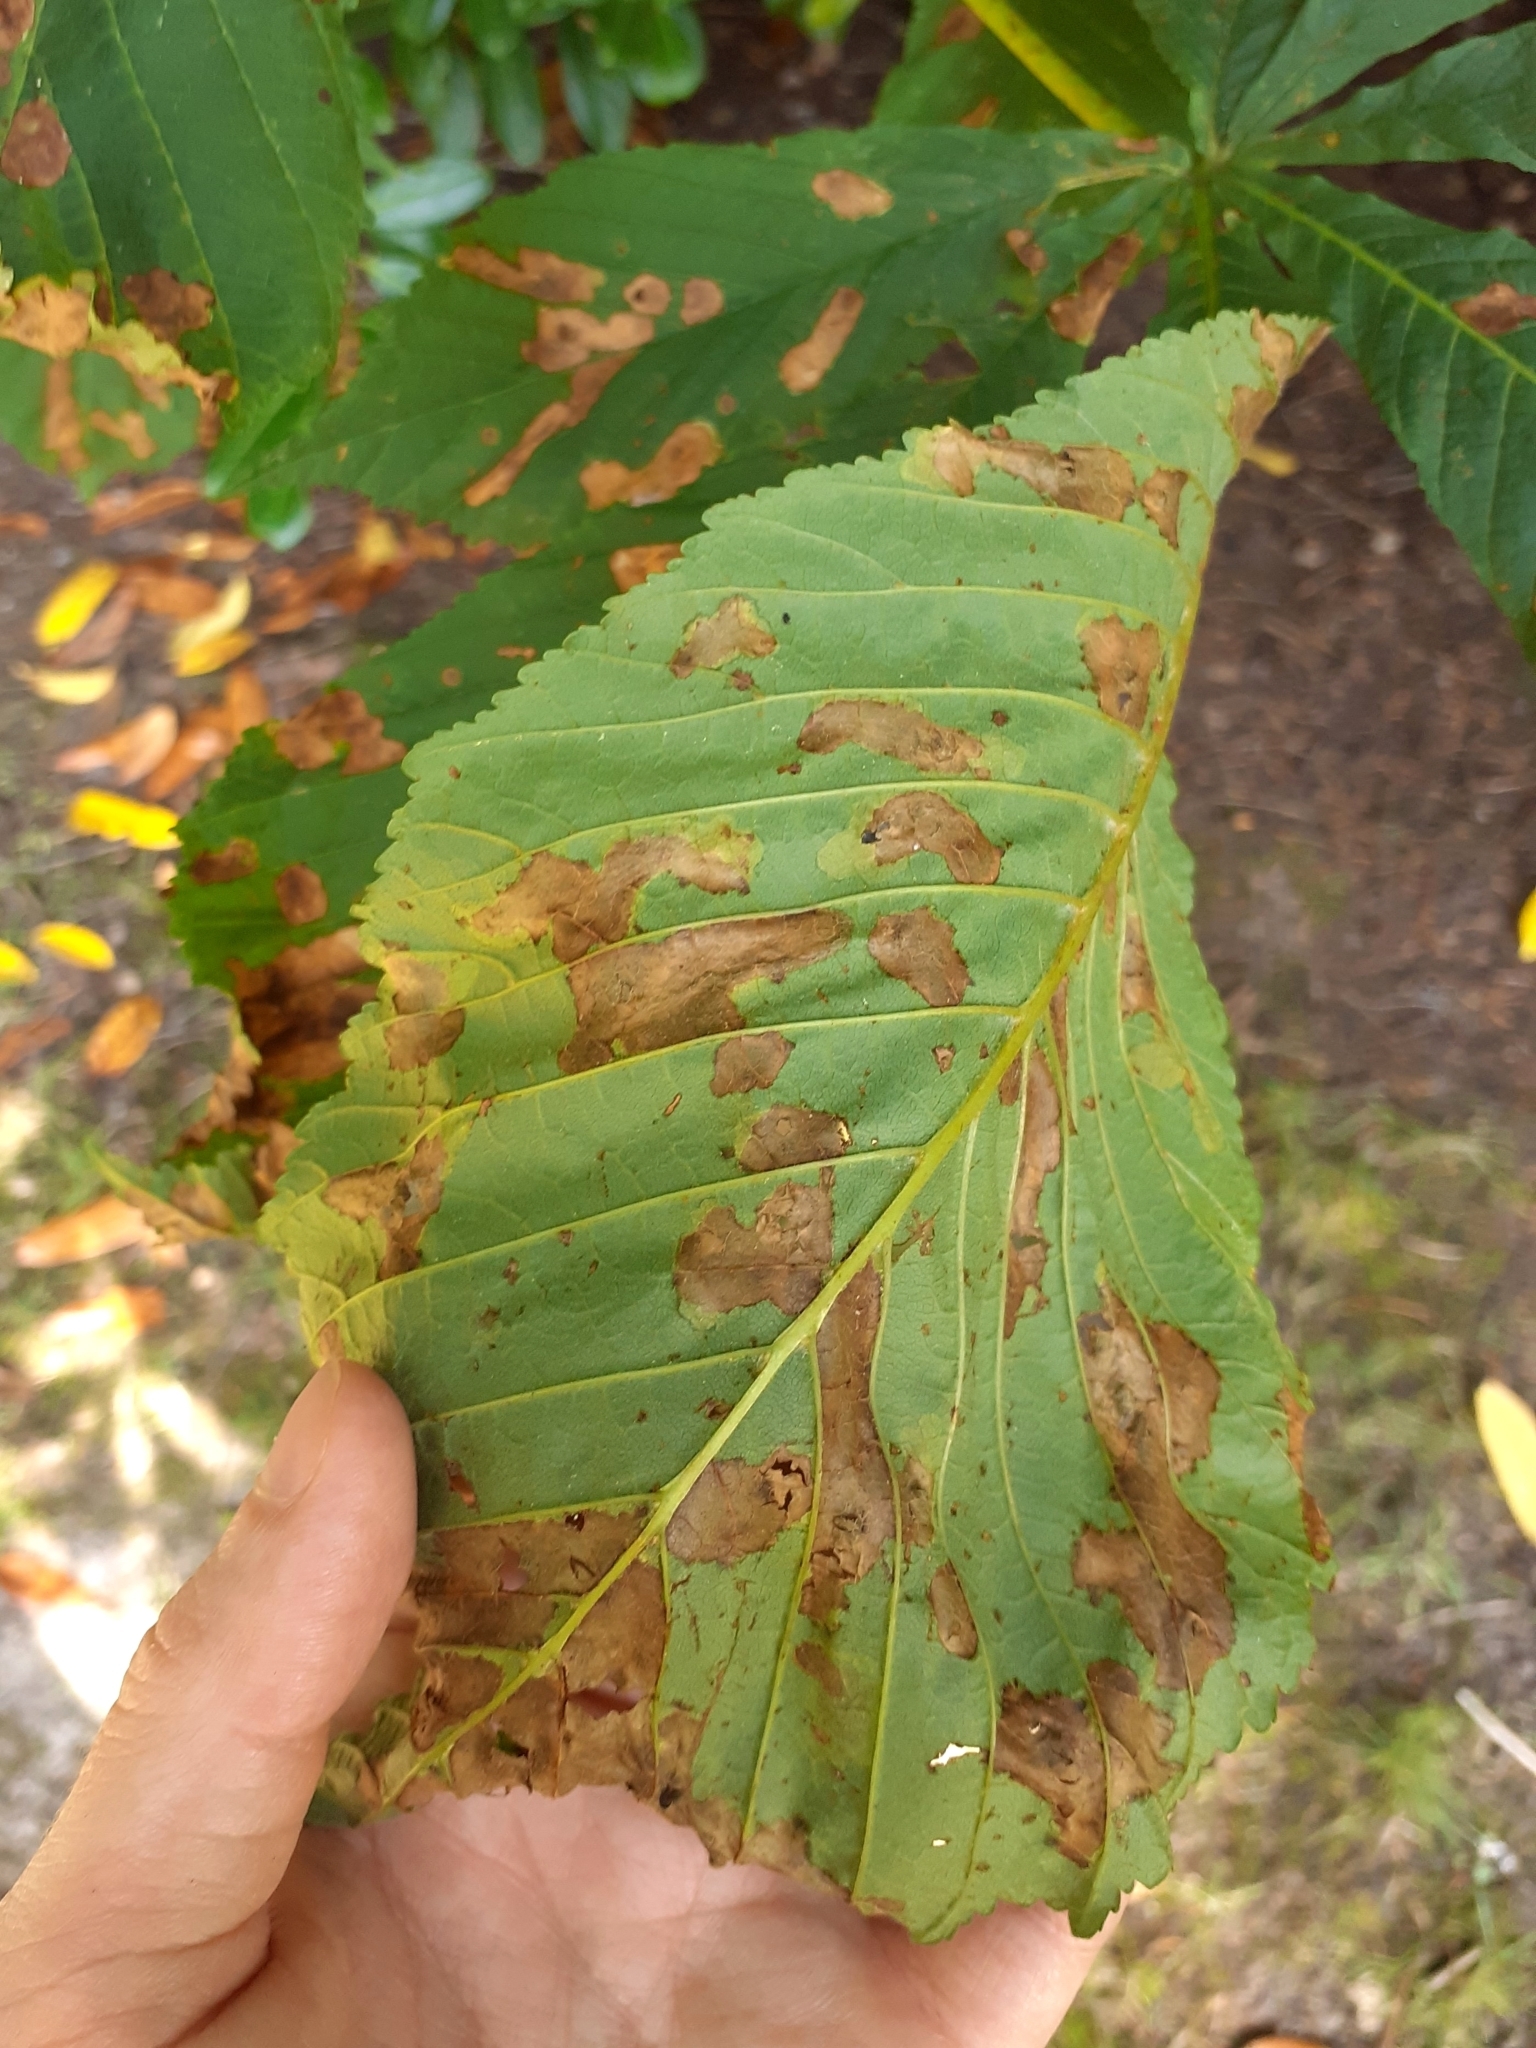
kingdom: Animalia
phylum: Arthropoda
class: Insecta
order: Lepidoptera
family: Gracillariidae
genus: Cameraria
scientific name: Cameraria ohridella
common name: Horse-chestnut leaf-miner
